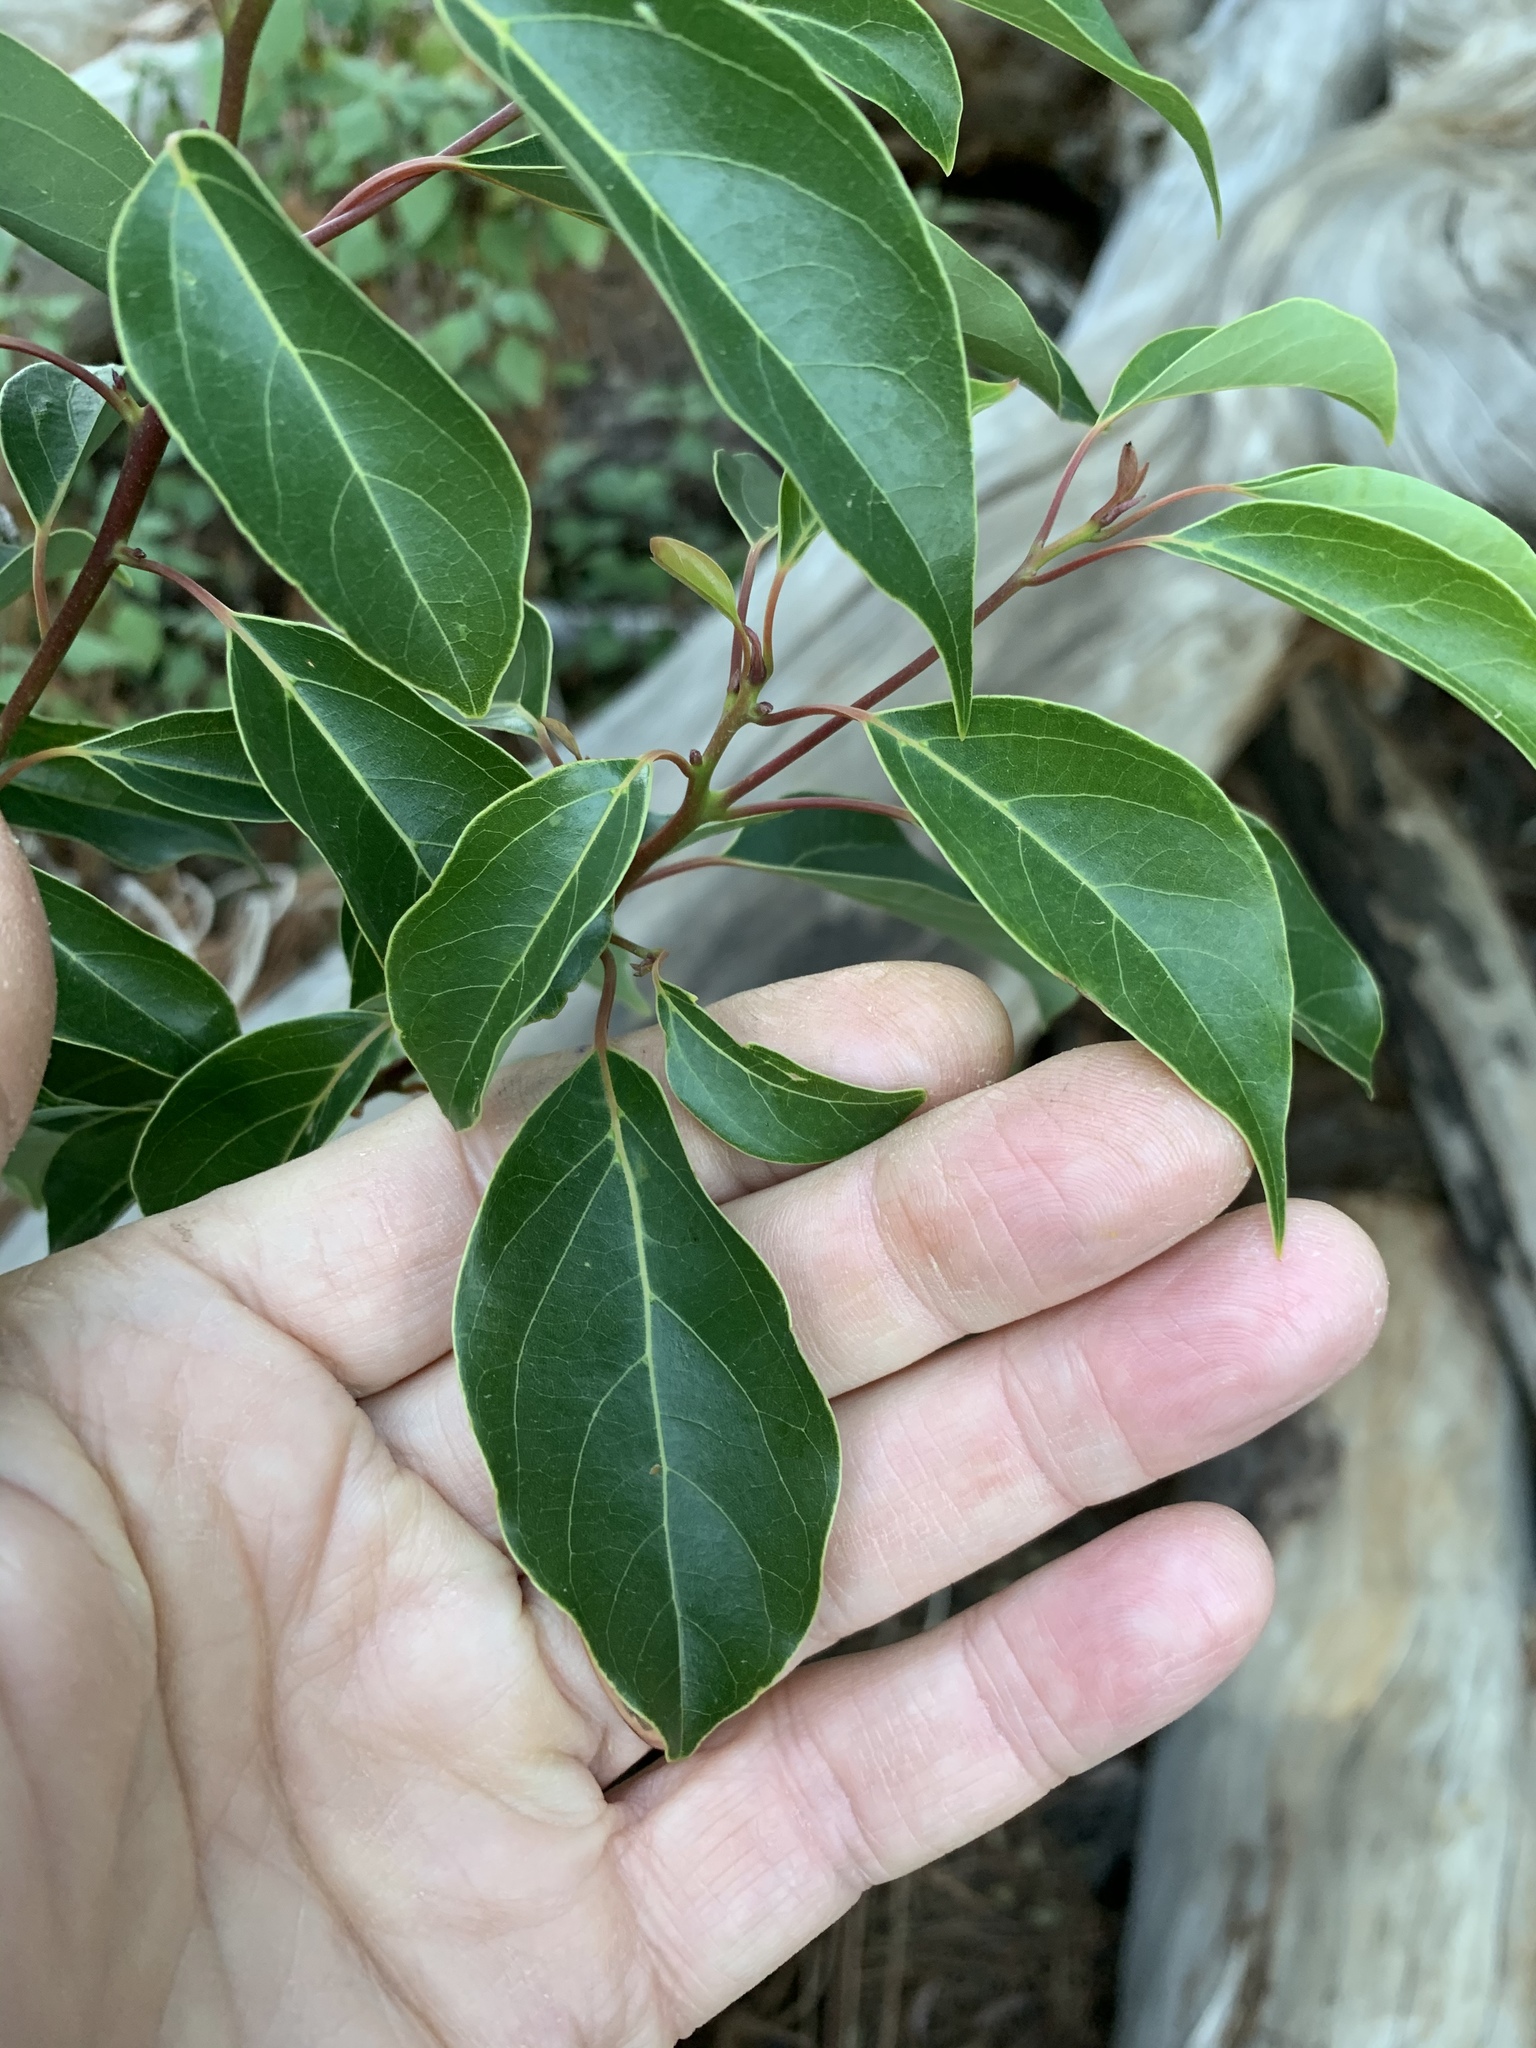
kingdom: Plantae
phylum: Tracheophyta
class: Magnoliopsida
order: Laurales
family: Lauraceae
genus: Cinnamomum
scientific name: Cinnamomum camphora
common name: Camphortree
